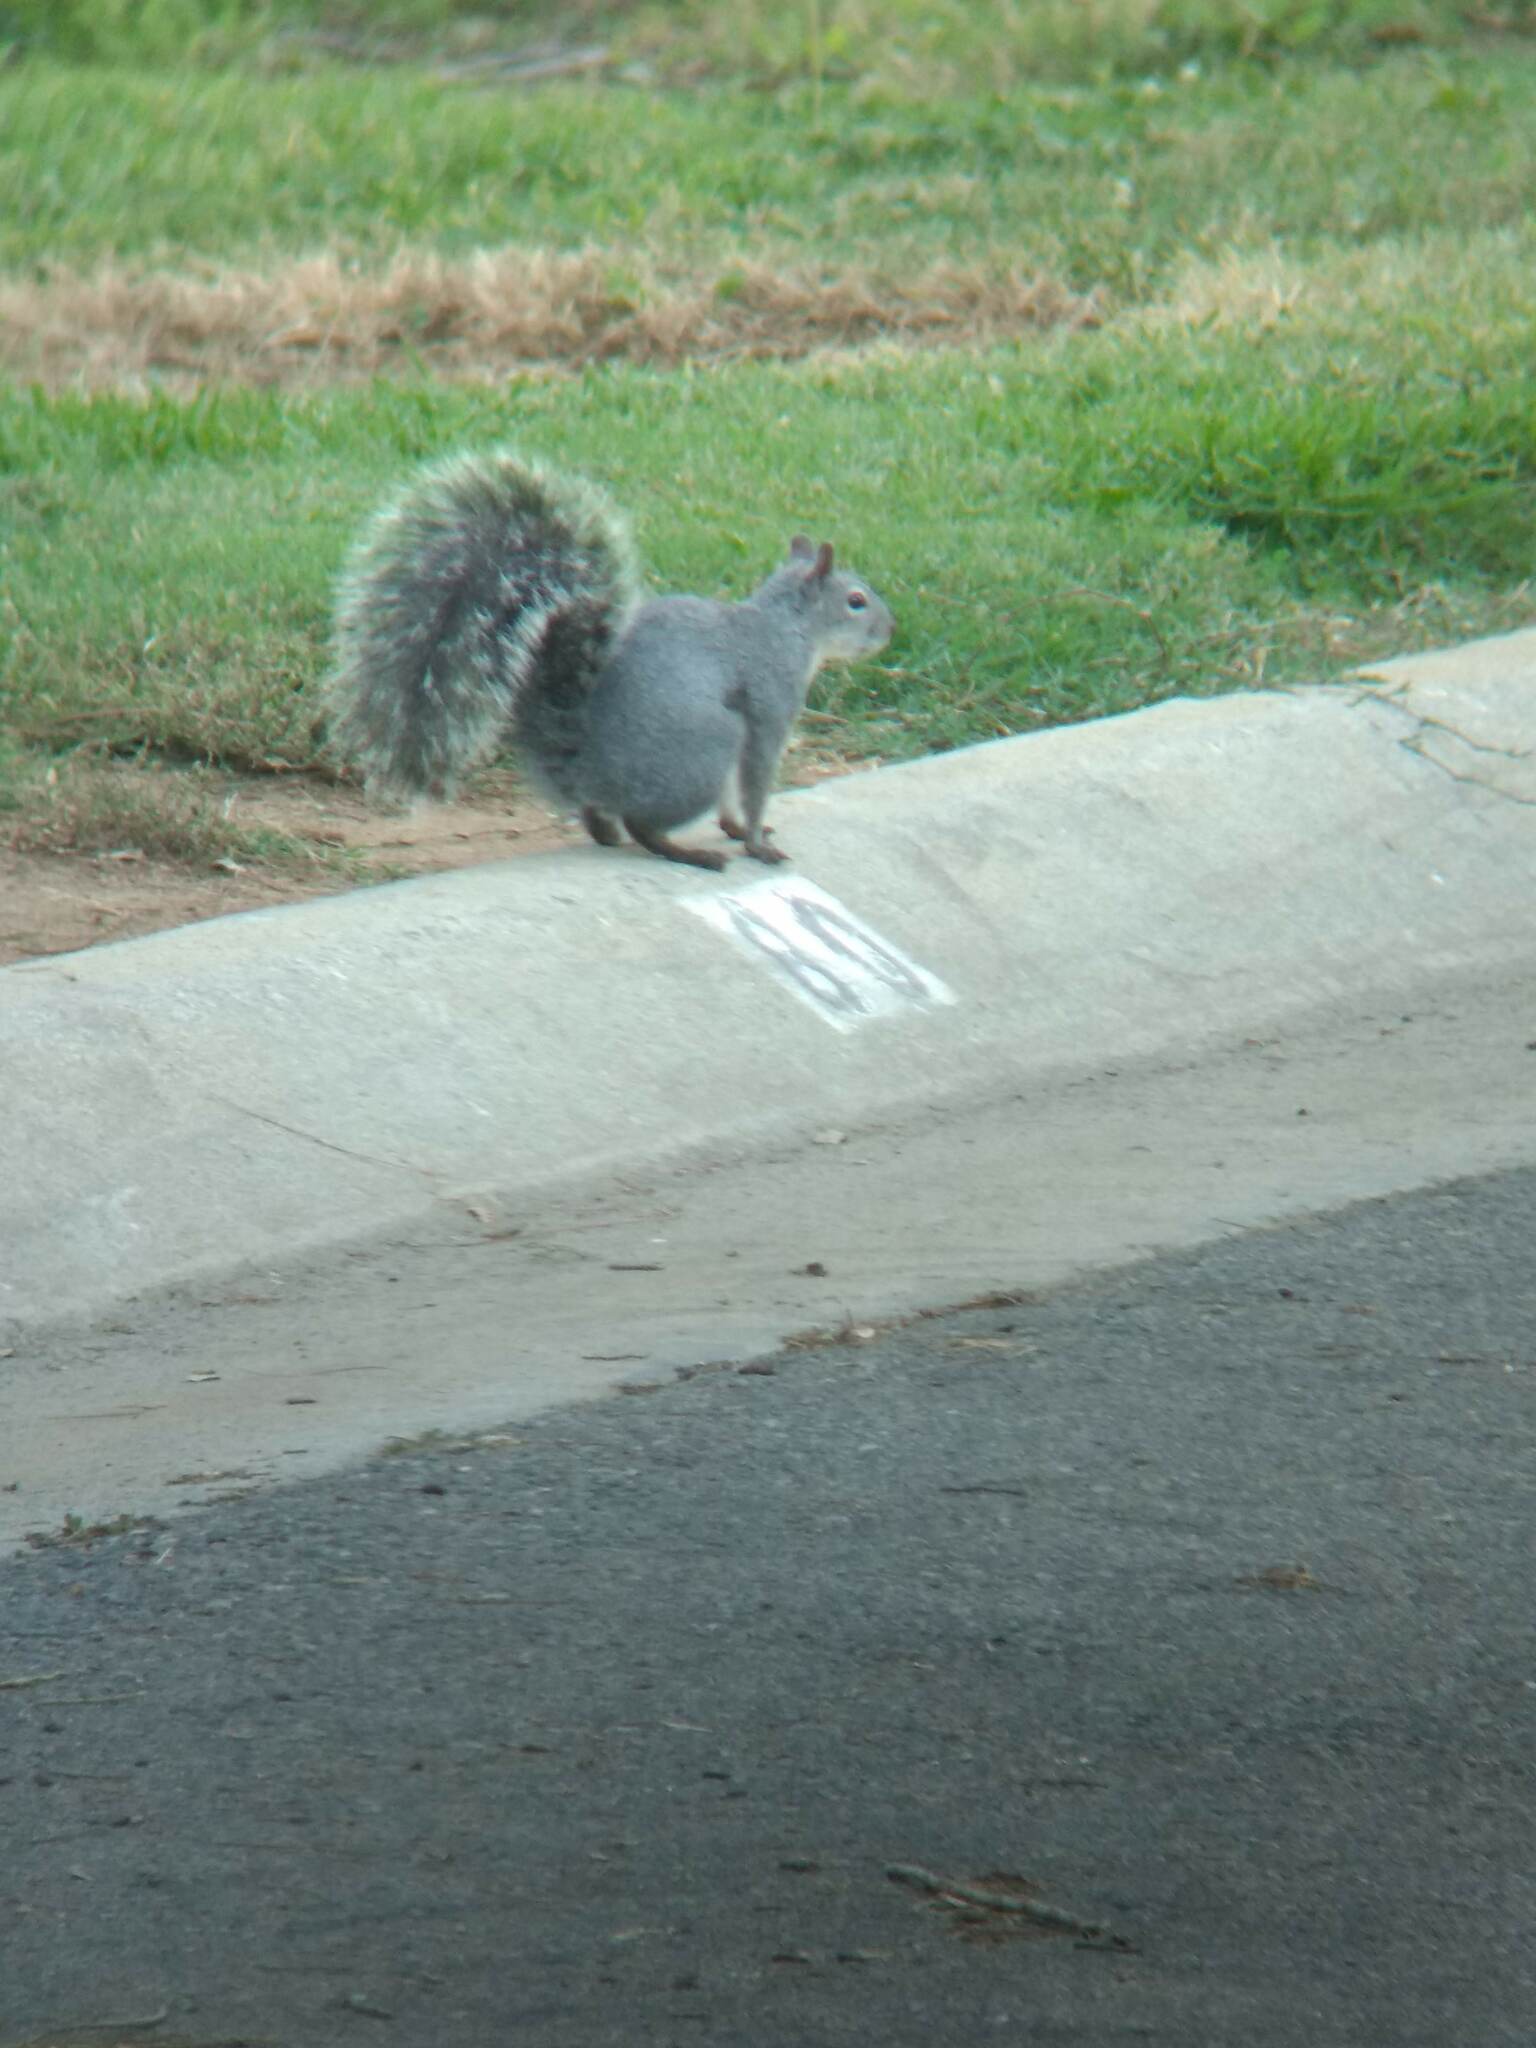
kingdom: Animalia
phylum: Chordata
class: Mammalia
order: Rodentia
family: Sciuridae
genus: Sciurus
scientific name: Sciurus griseus
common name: Western gray squirrel
